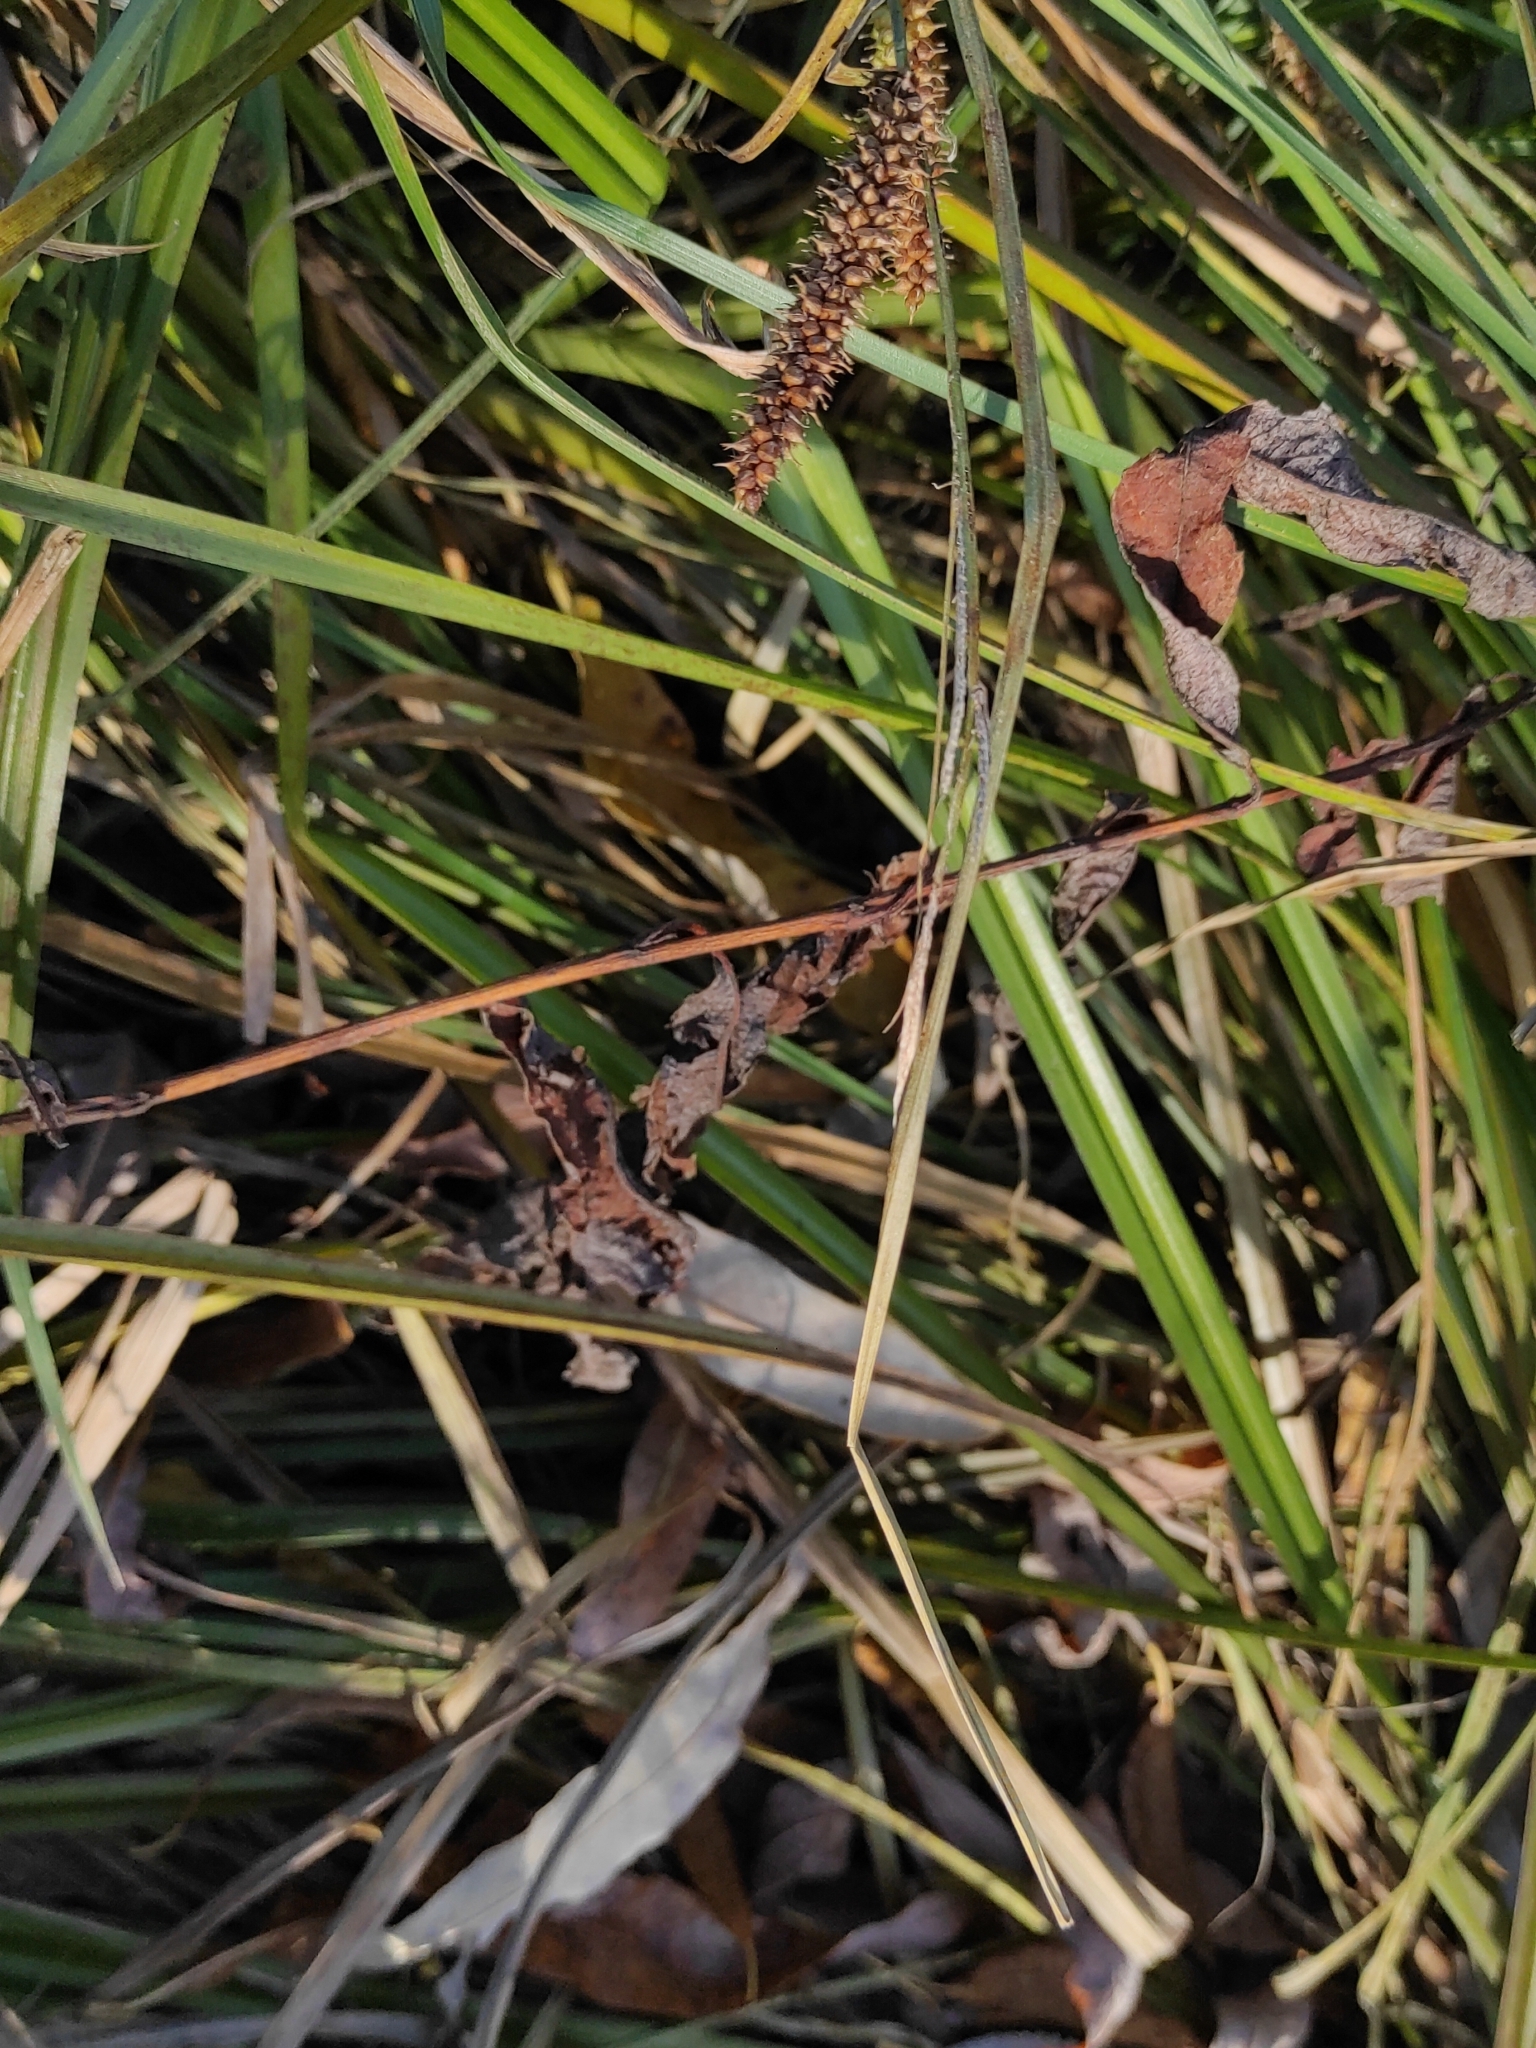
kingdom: Plantae
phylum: Tracheophyta
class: Liliopsida
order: Poales
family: Cyperaceae
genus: Carex
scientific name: Carex rostrata
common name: Bottle sedge
